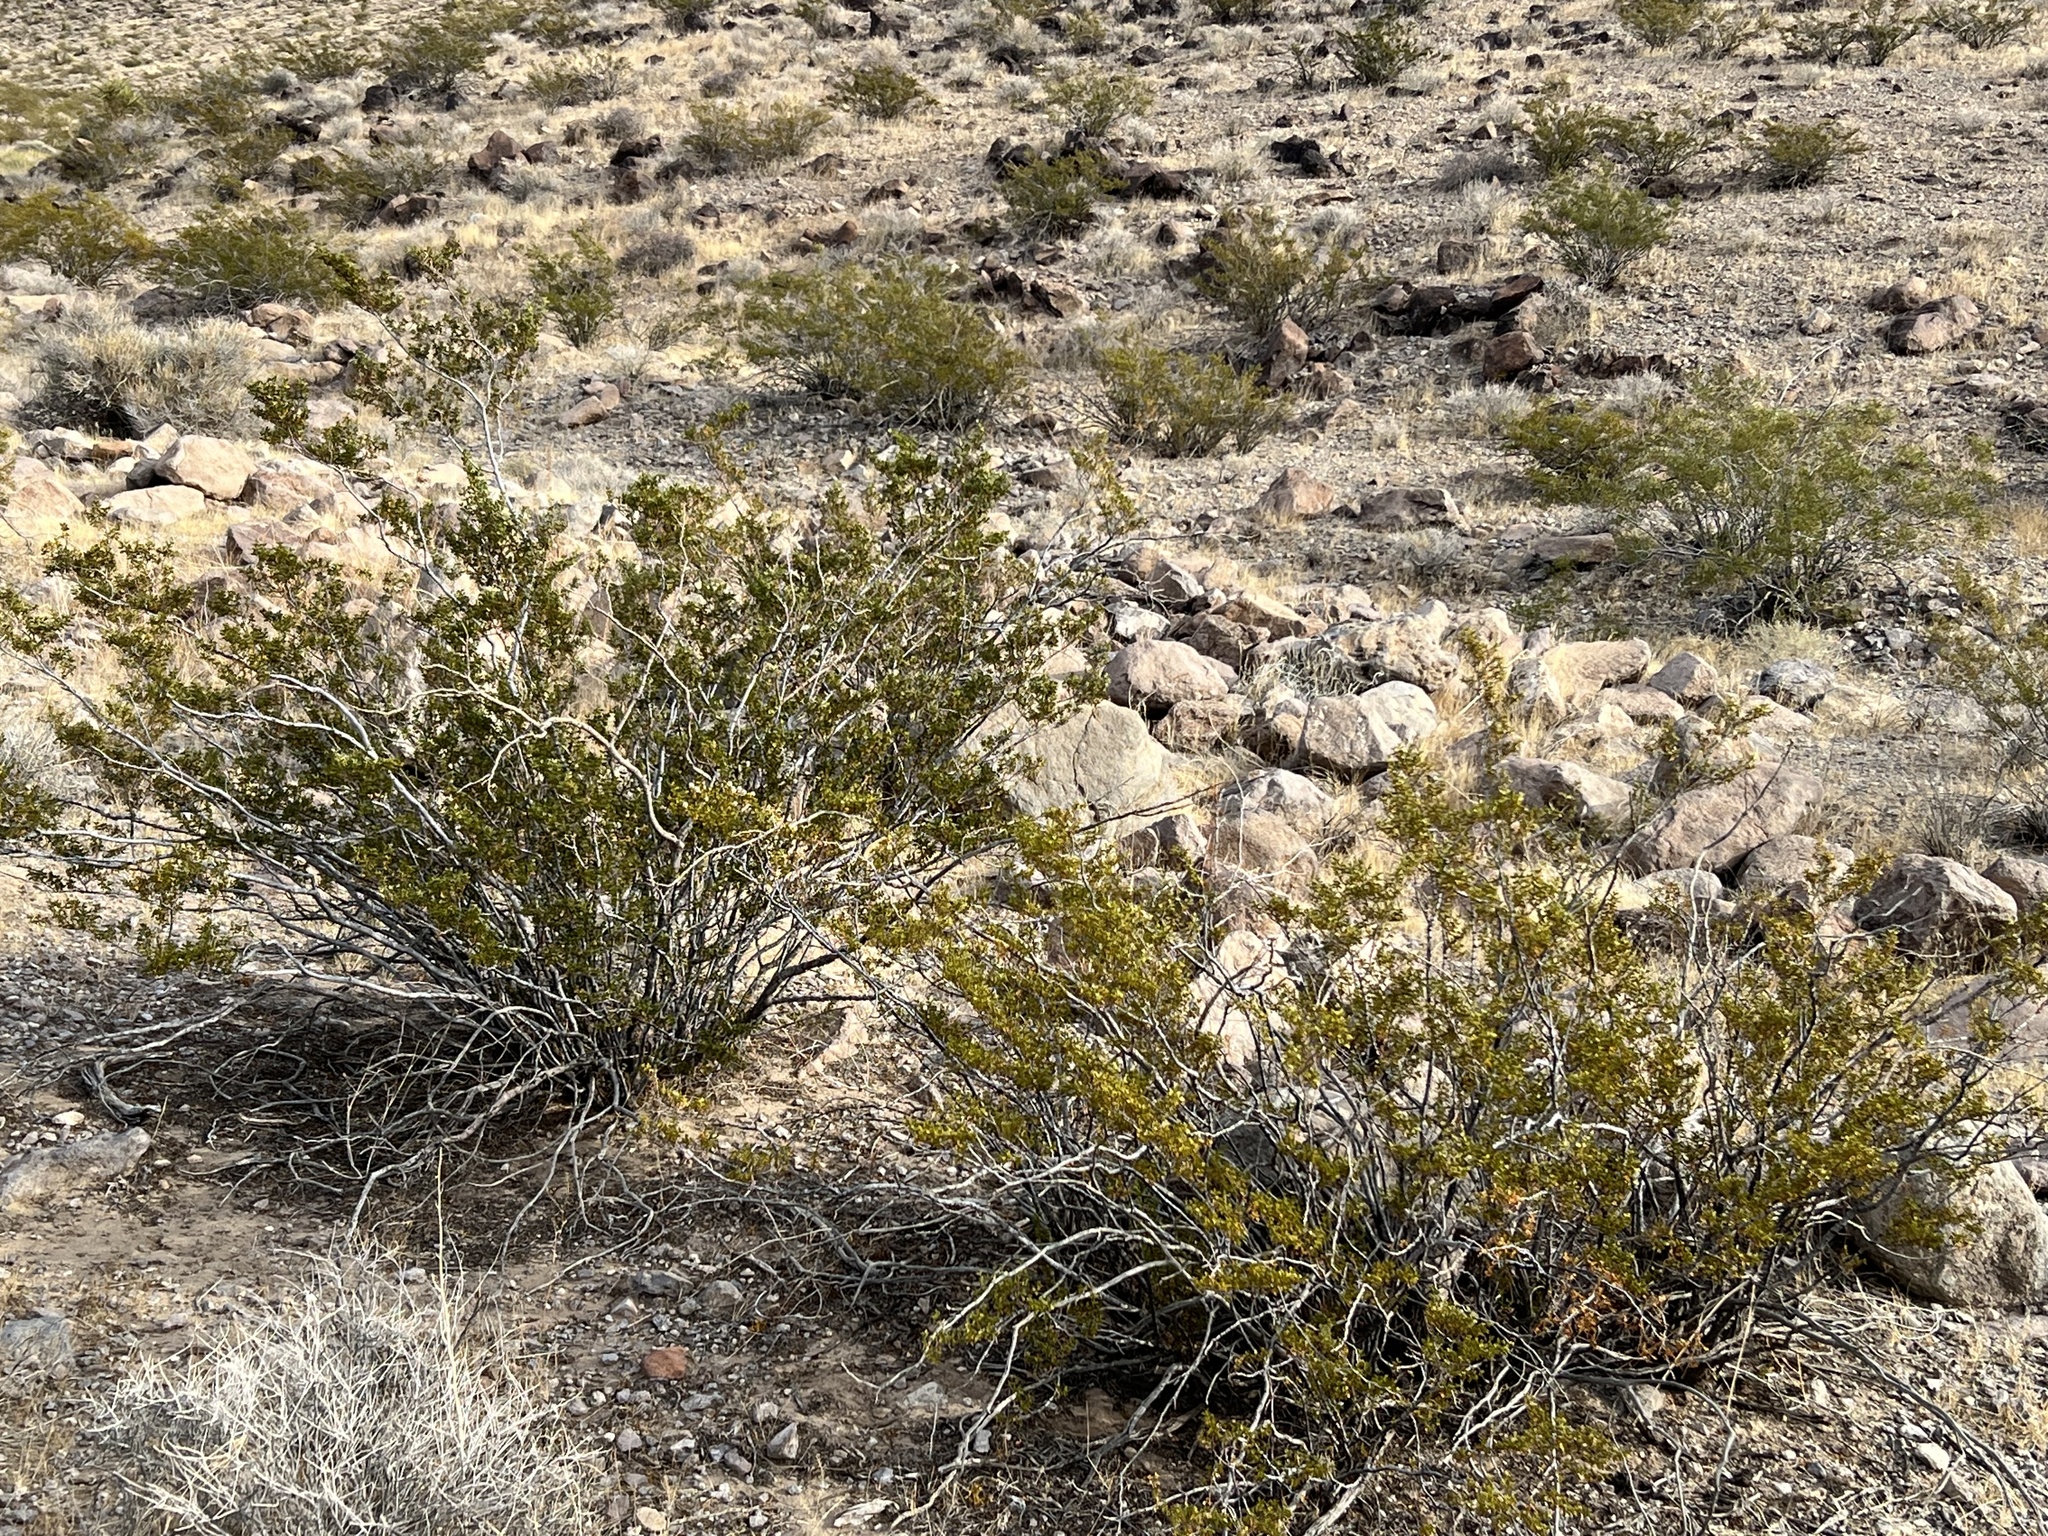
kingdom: Plantae
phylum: Tracheophyta
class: Magnoliopsida
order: Zygophyllales
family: Zygophyllaceae
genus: Larrea
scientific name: Larrea tridentata
